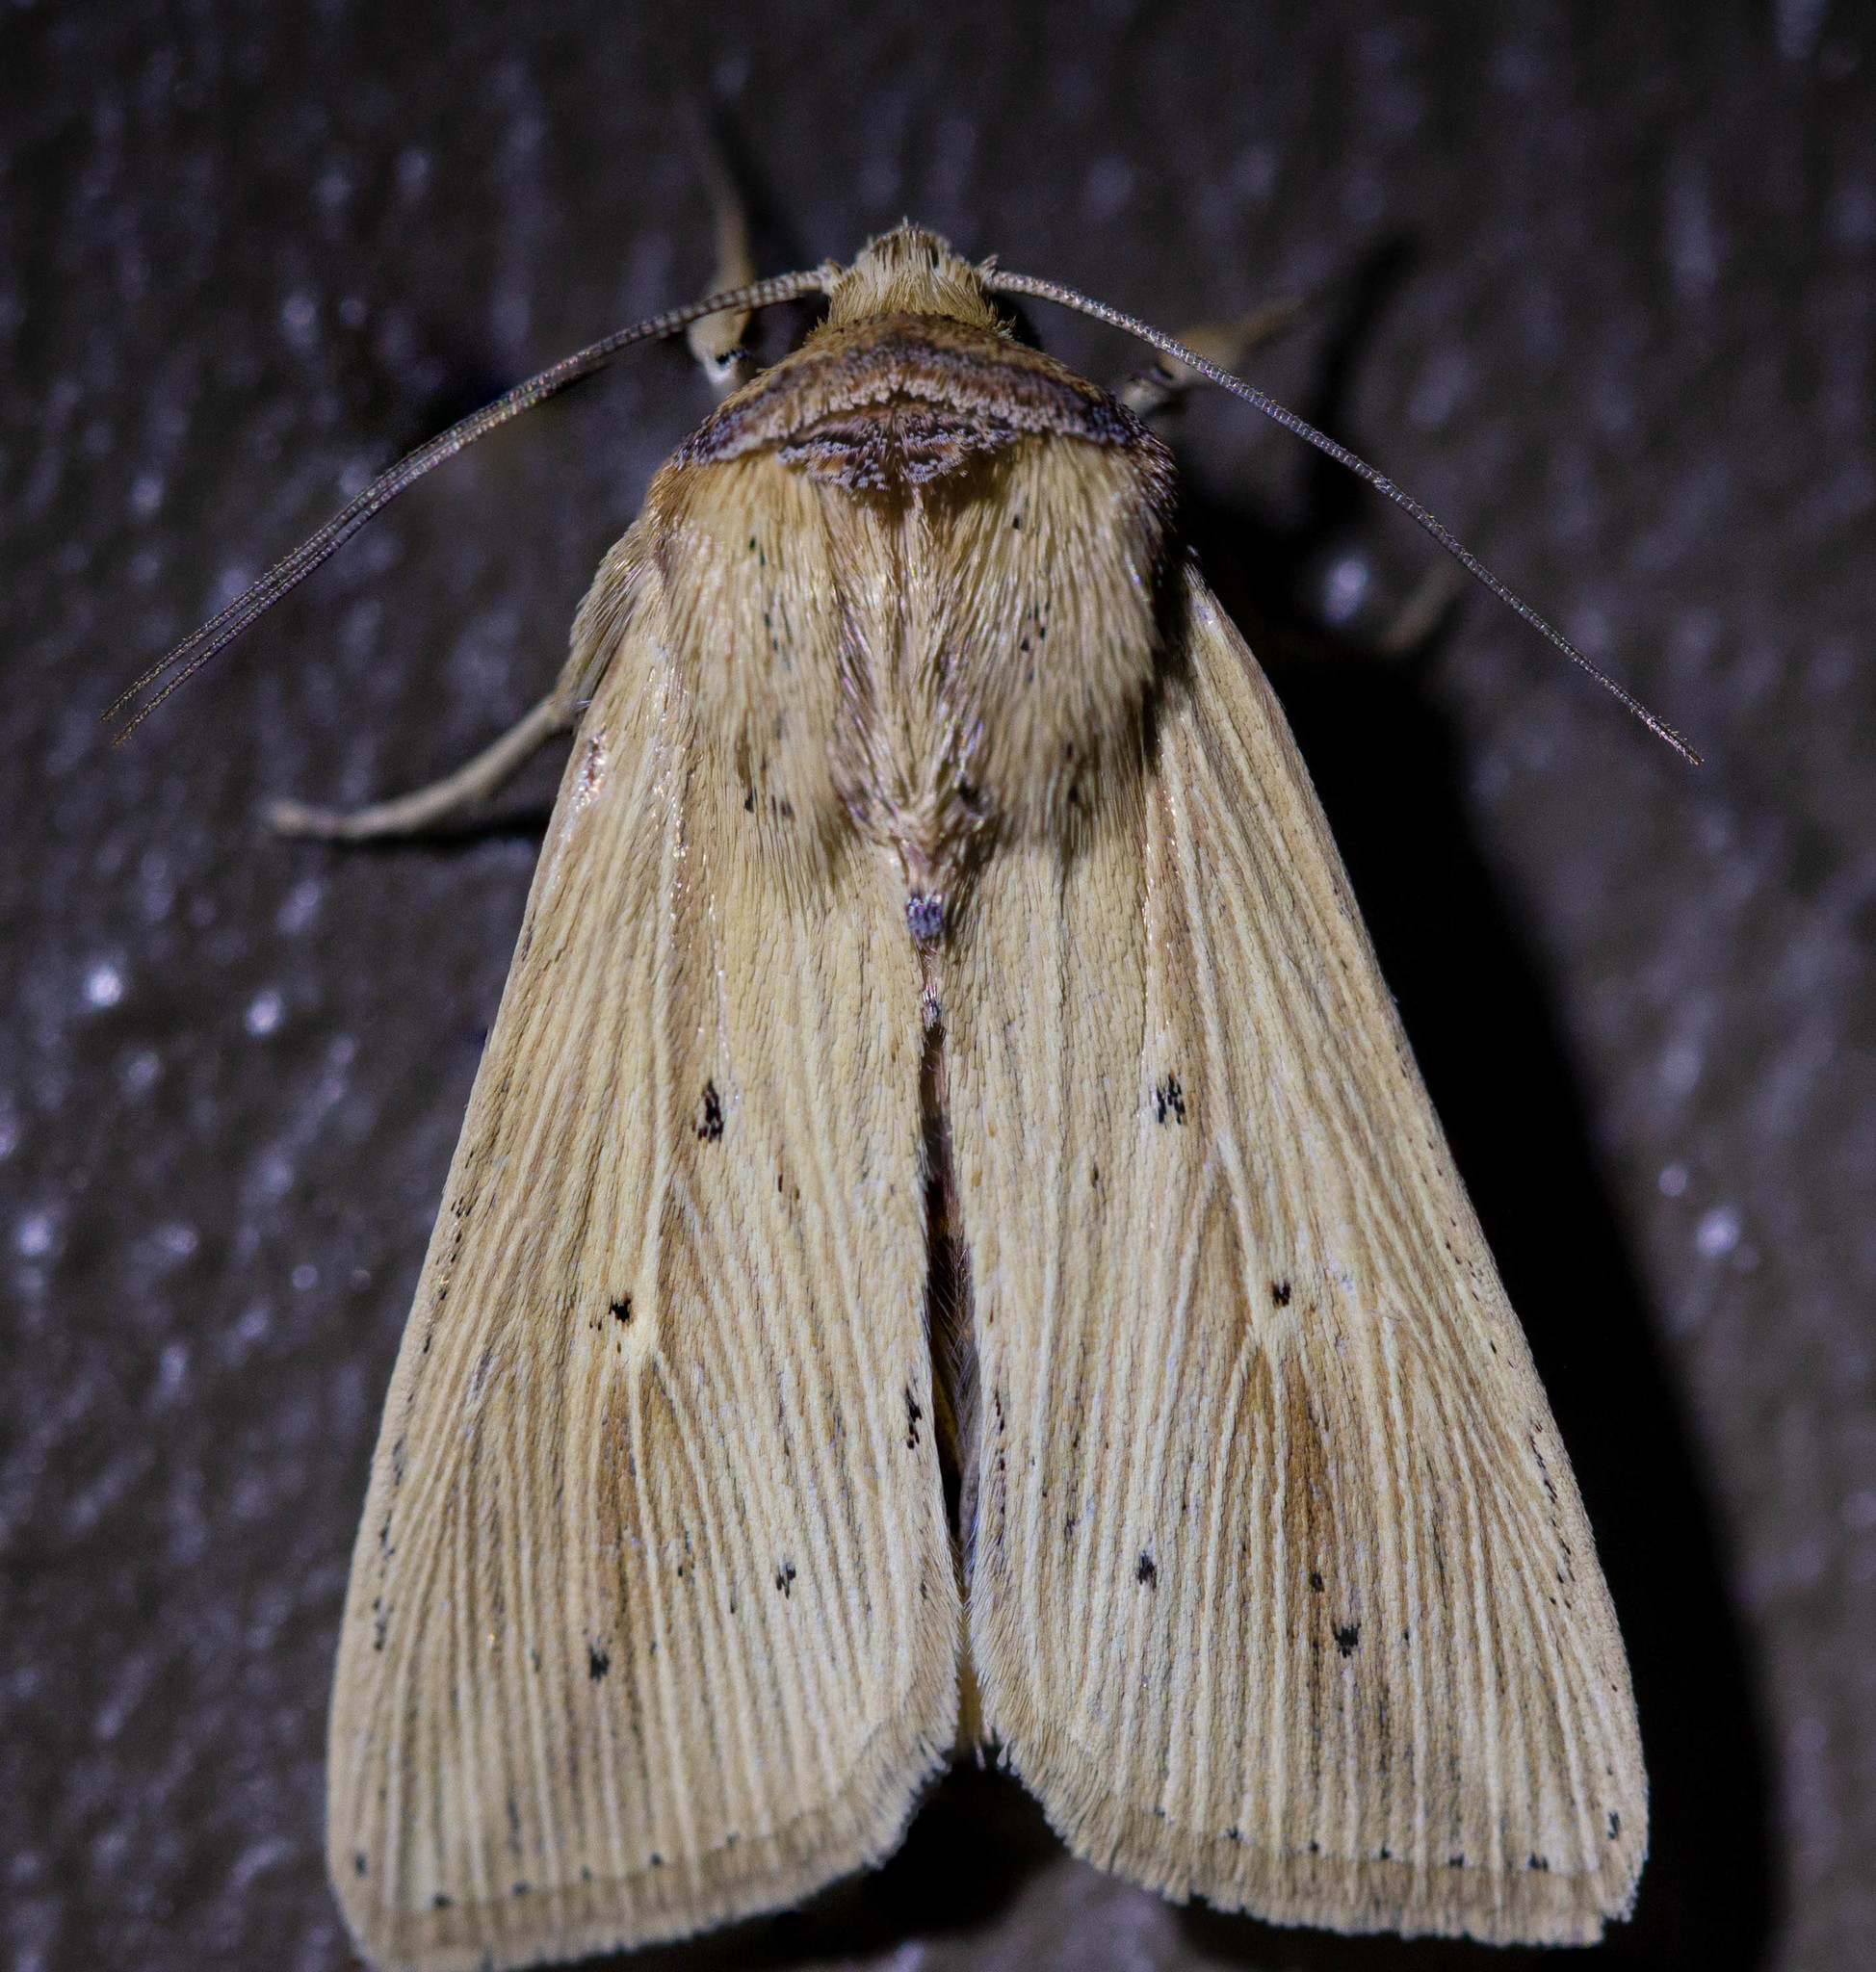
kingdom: Animalia
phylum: Arthropoda
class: Insecta
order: Lepidoptera
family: Noctuidae
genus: Leucania
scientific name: Leucania adjuta
